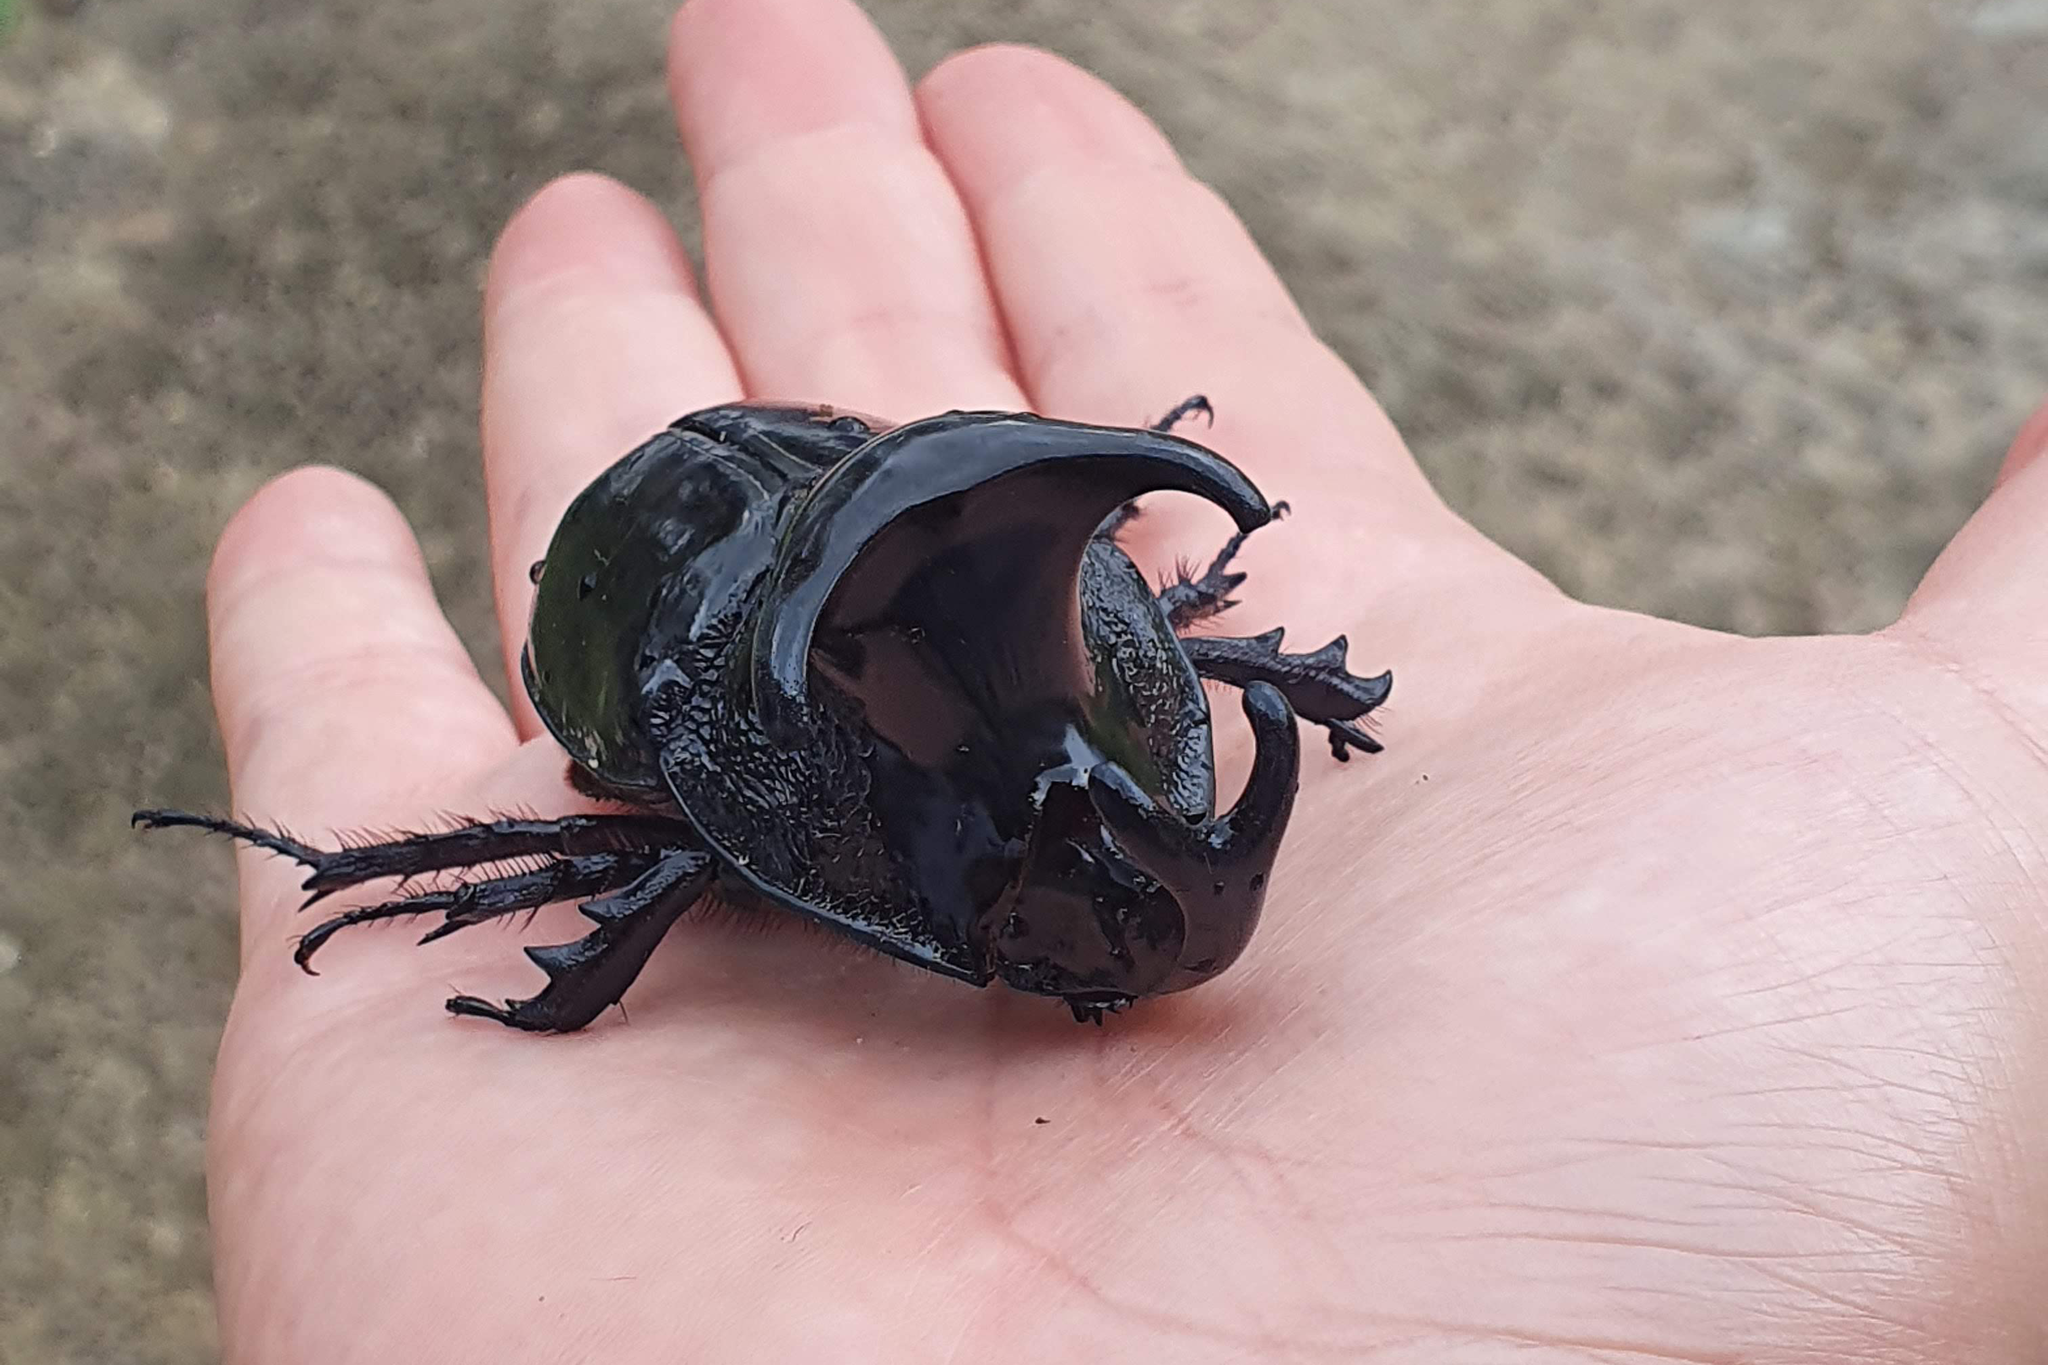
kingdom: Animalia
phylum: Arthropoda
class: Insecta
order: Coleoptera
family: Scarabaeidae
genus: Megaceras
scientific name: Megaceras jason
